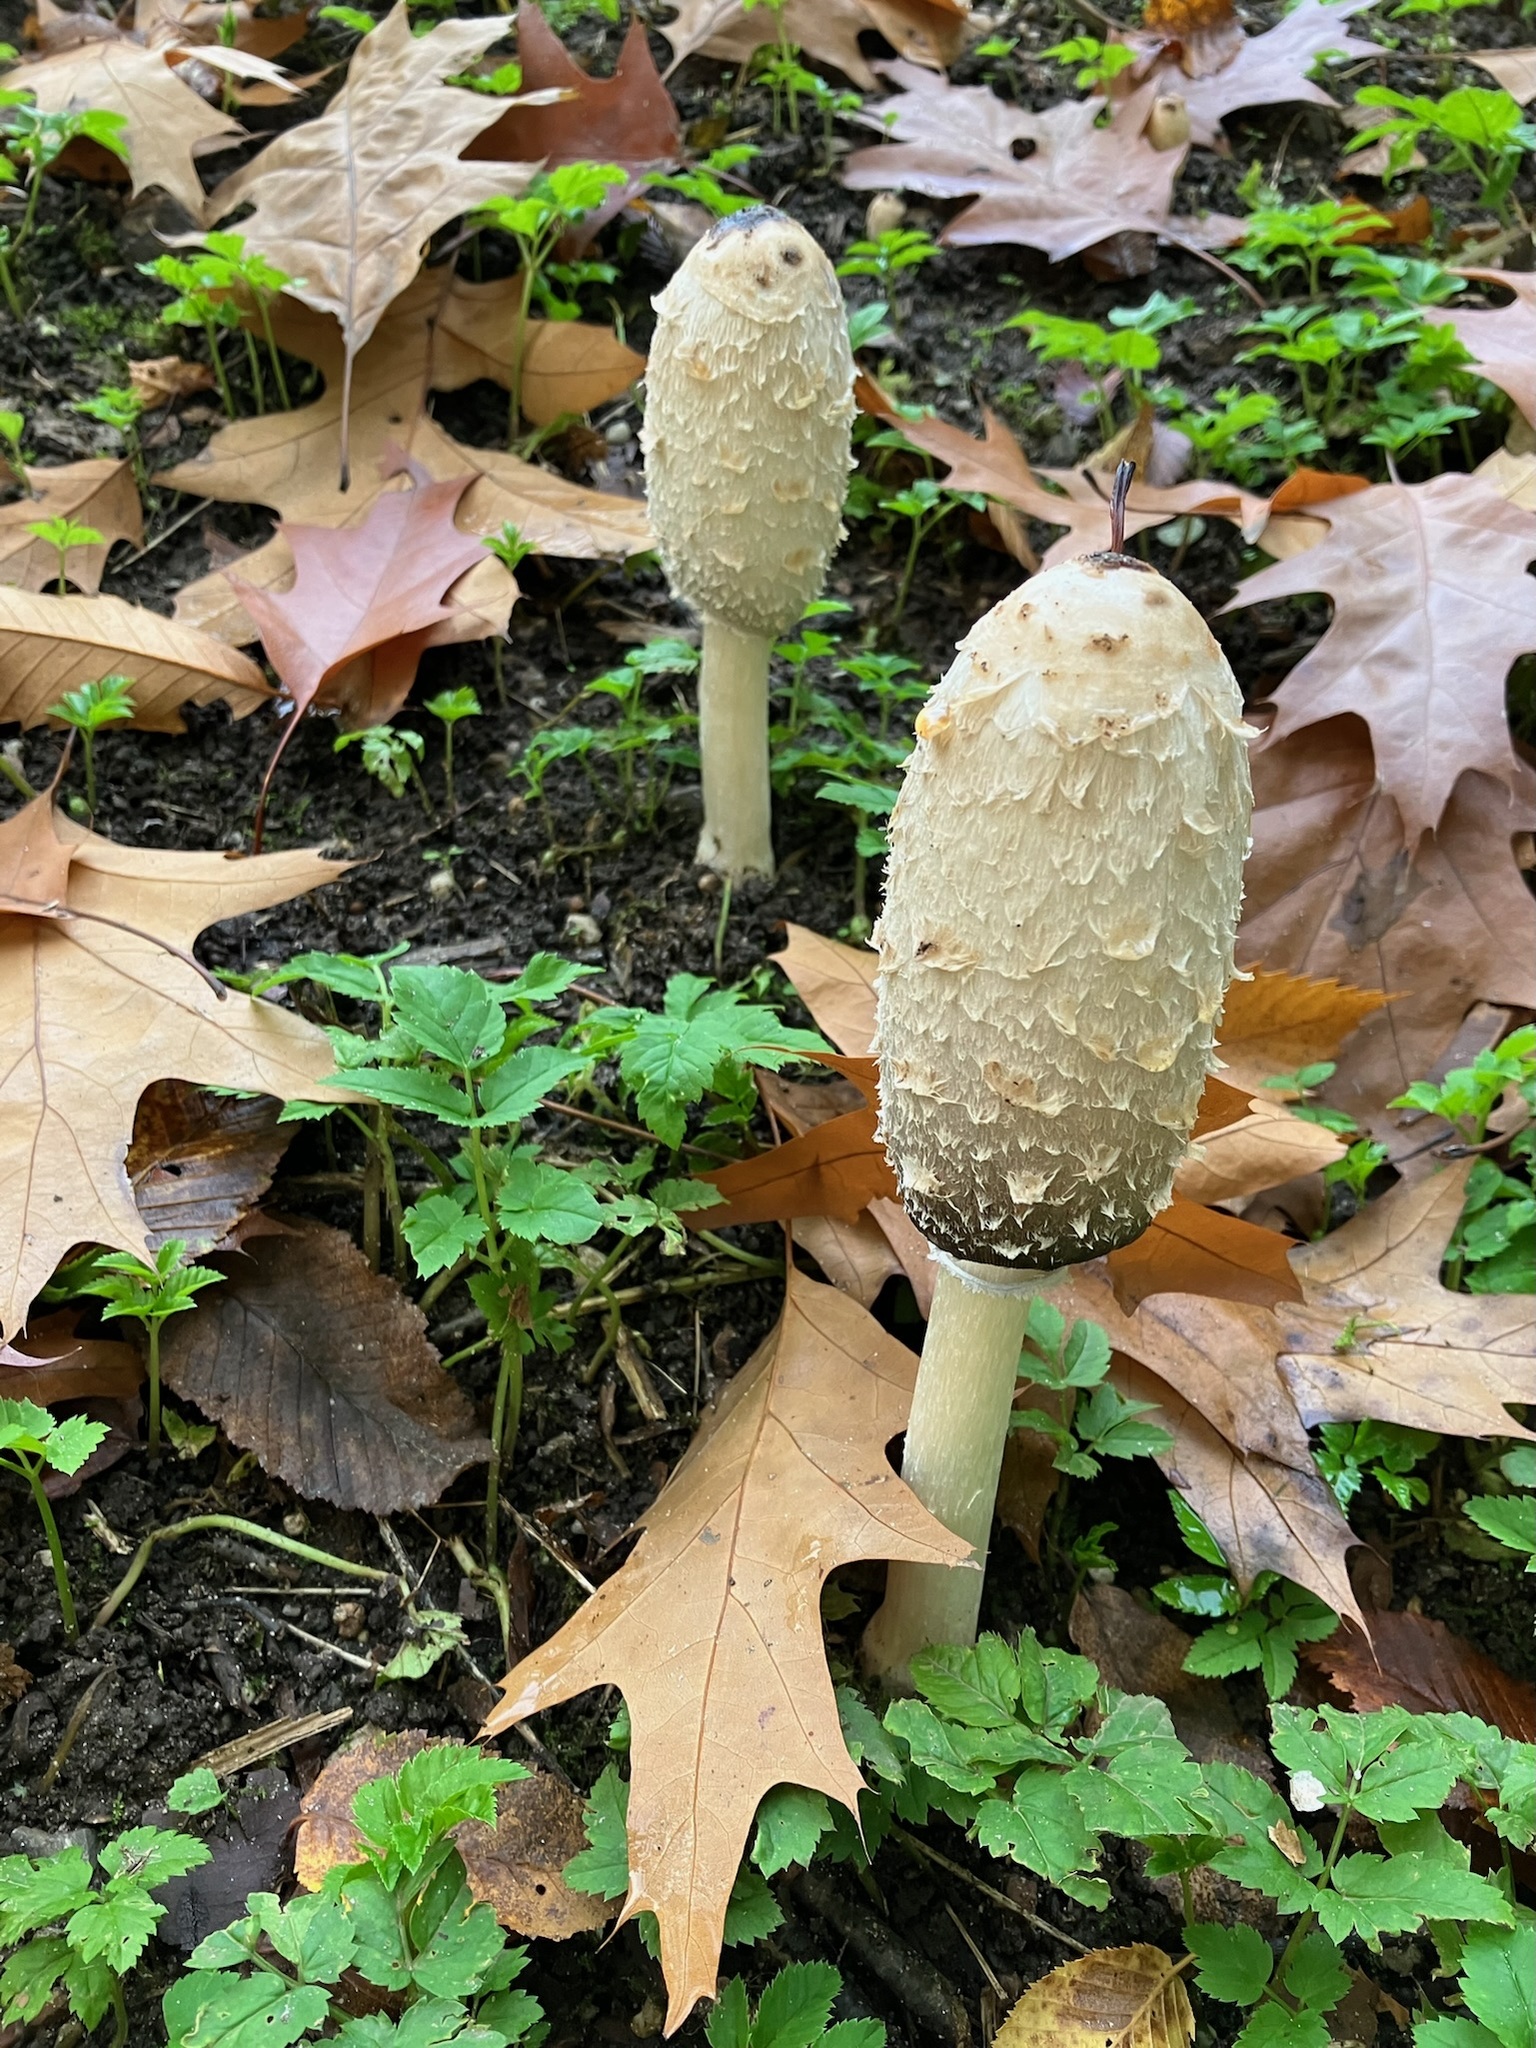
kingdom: Fungi
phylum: Basidiomycota
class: Agaricomycetes
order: Agaricales
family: Agaricaceae
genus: Coprinus
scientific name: Coprinus comatus
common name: Lawyer's wig
